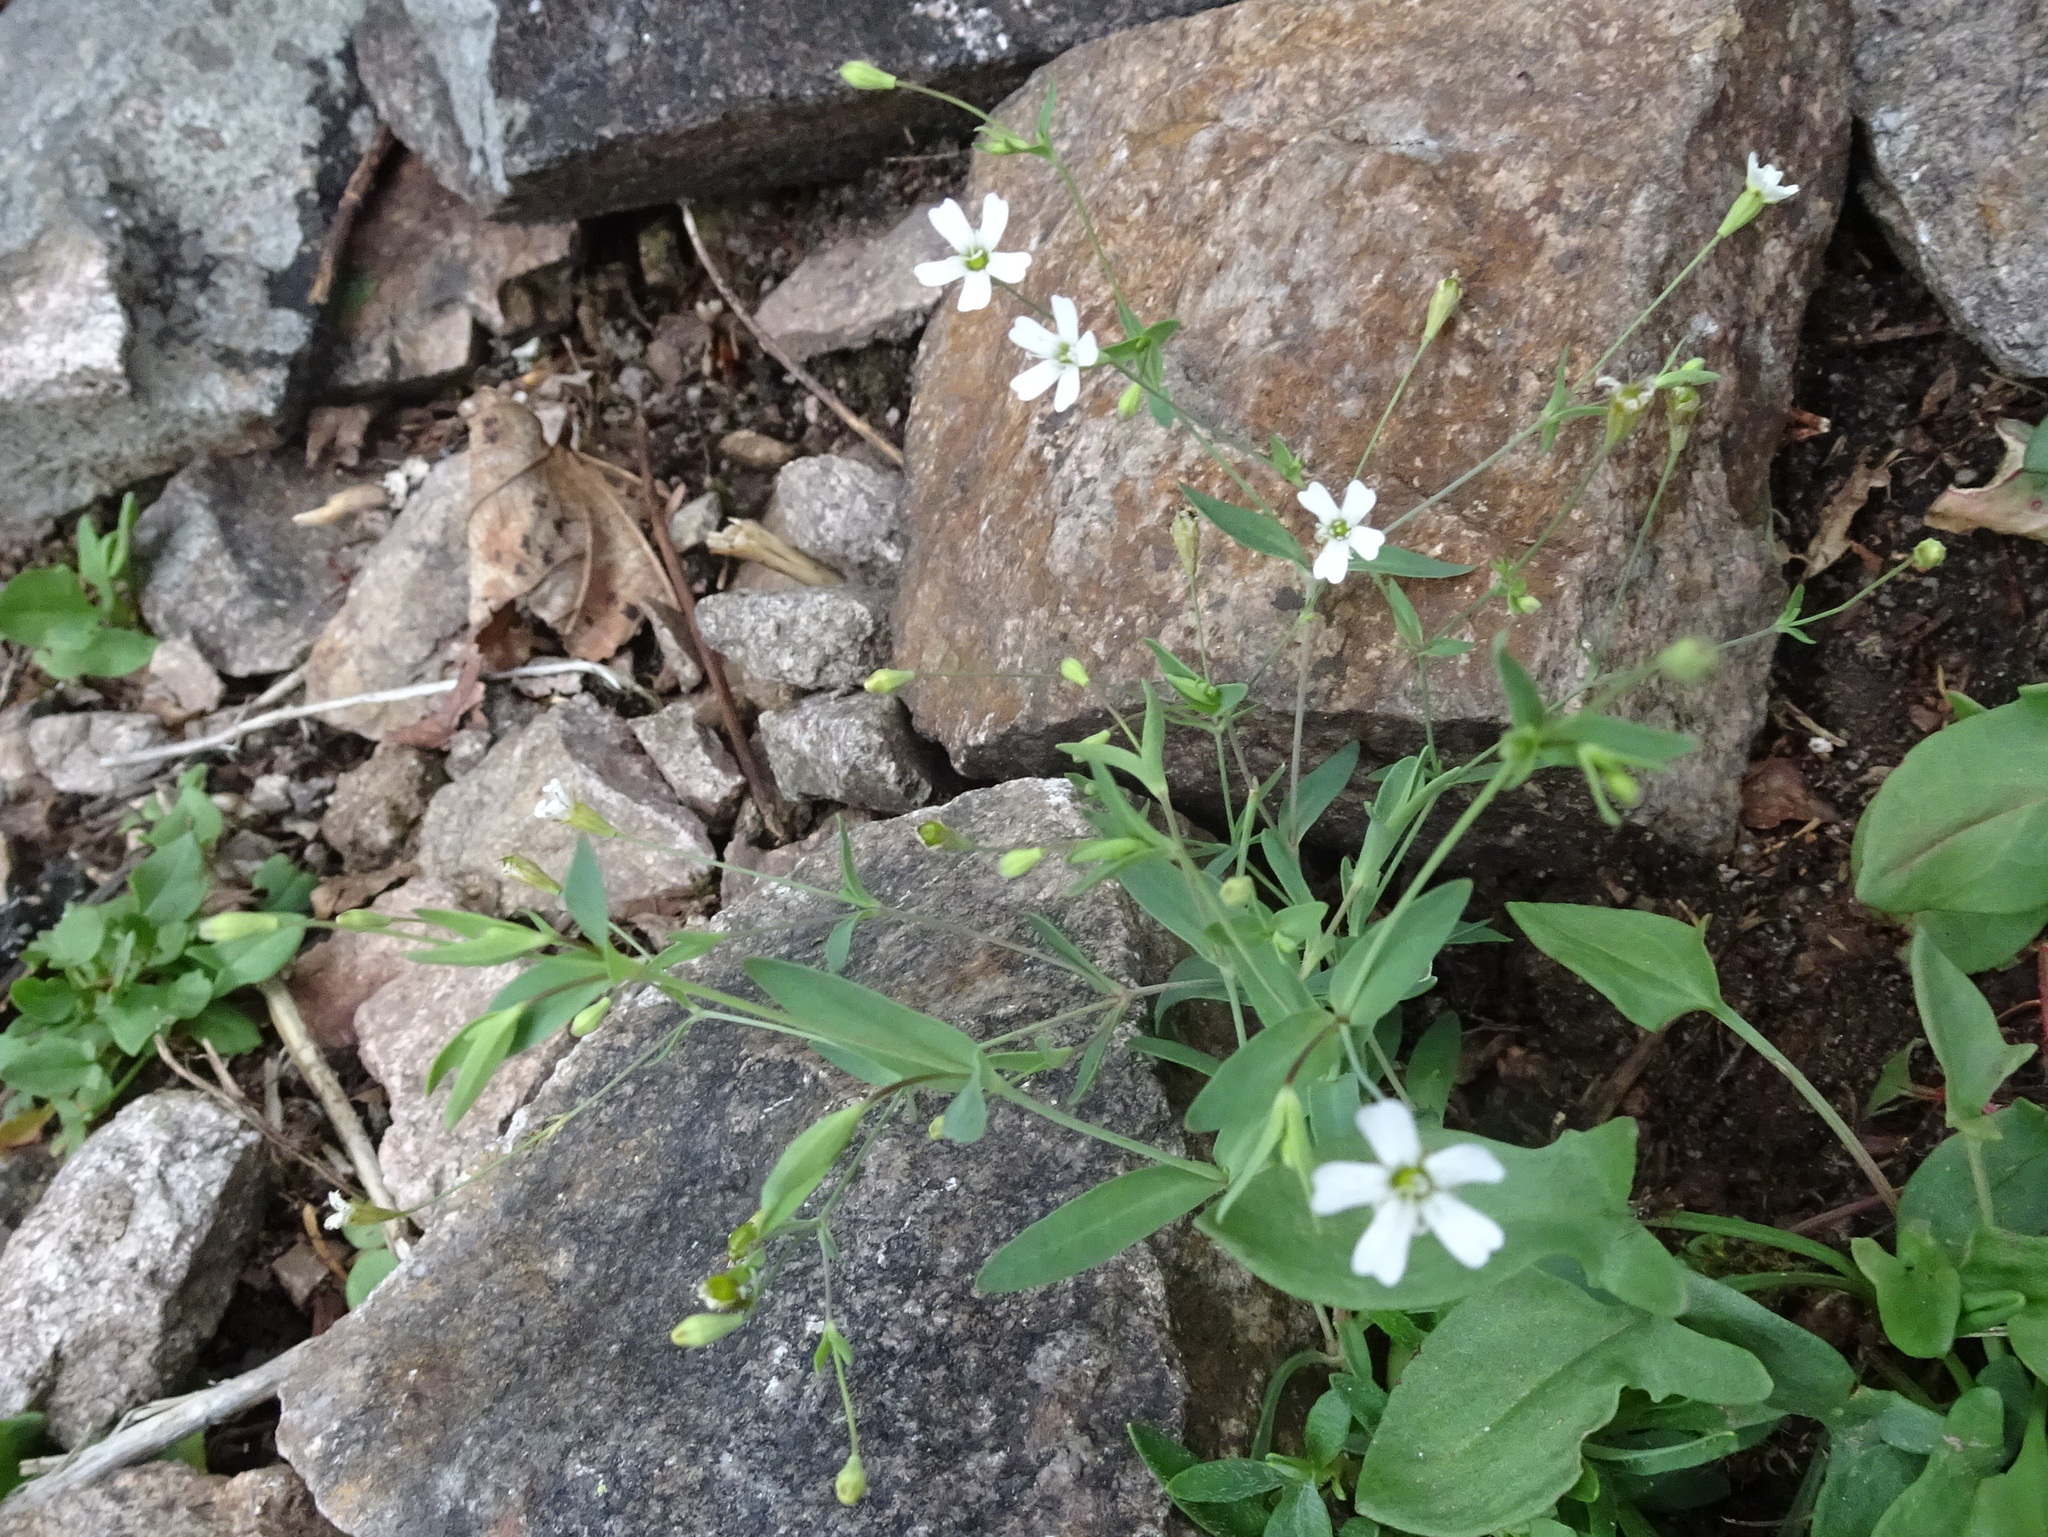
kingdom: Plantae
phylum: Tracheophyta
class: Magnoliopsida
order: Caryophyllales
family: Caryophyllaceae
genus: Atocion
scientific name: Atocion rupestre
